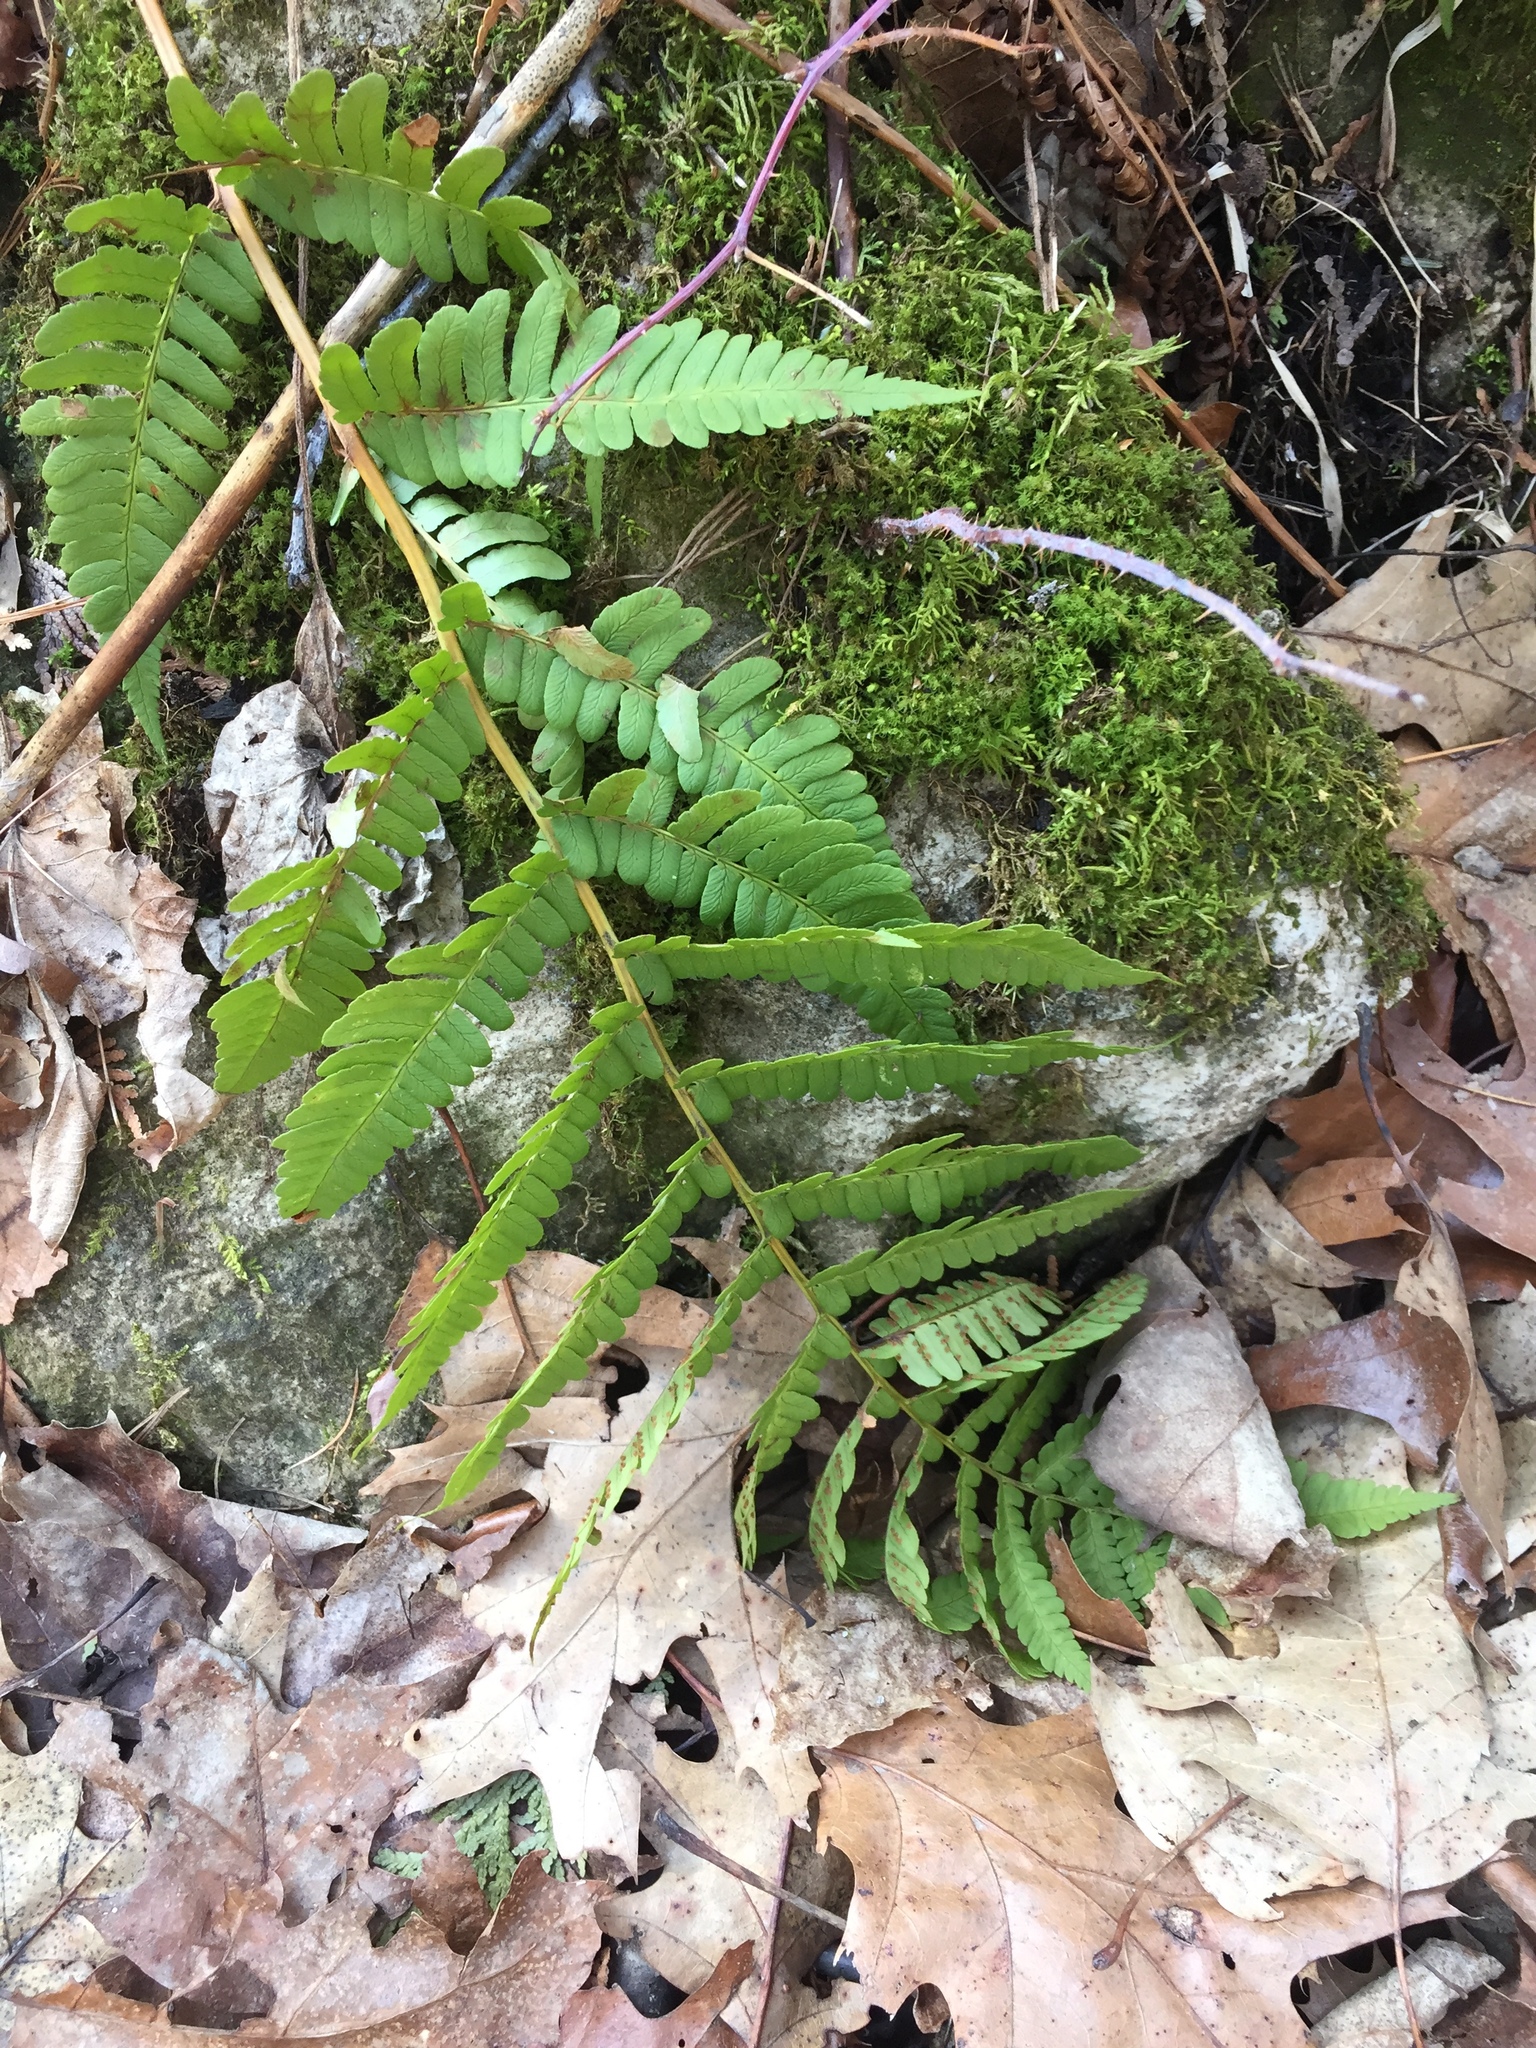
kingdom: Plantae
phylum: Tracheophyta
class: Polypodiopsida
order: Polypodiales
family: Dryopteridaceae
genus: Dryopteris
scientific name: Dryopteris marginalis
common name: Marginal wood fern
